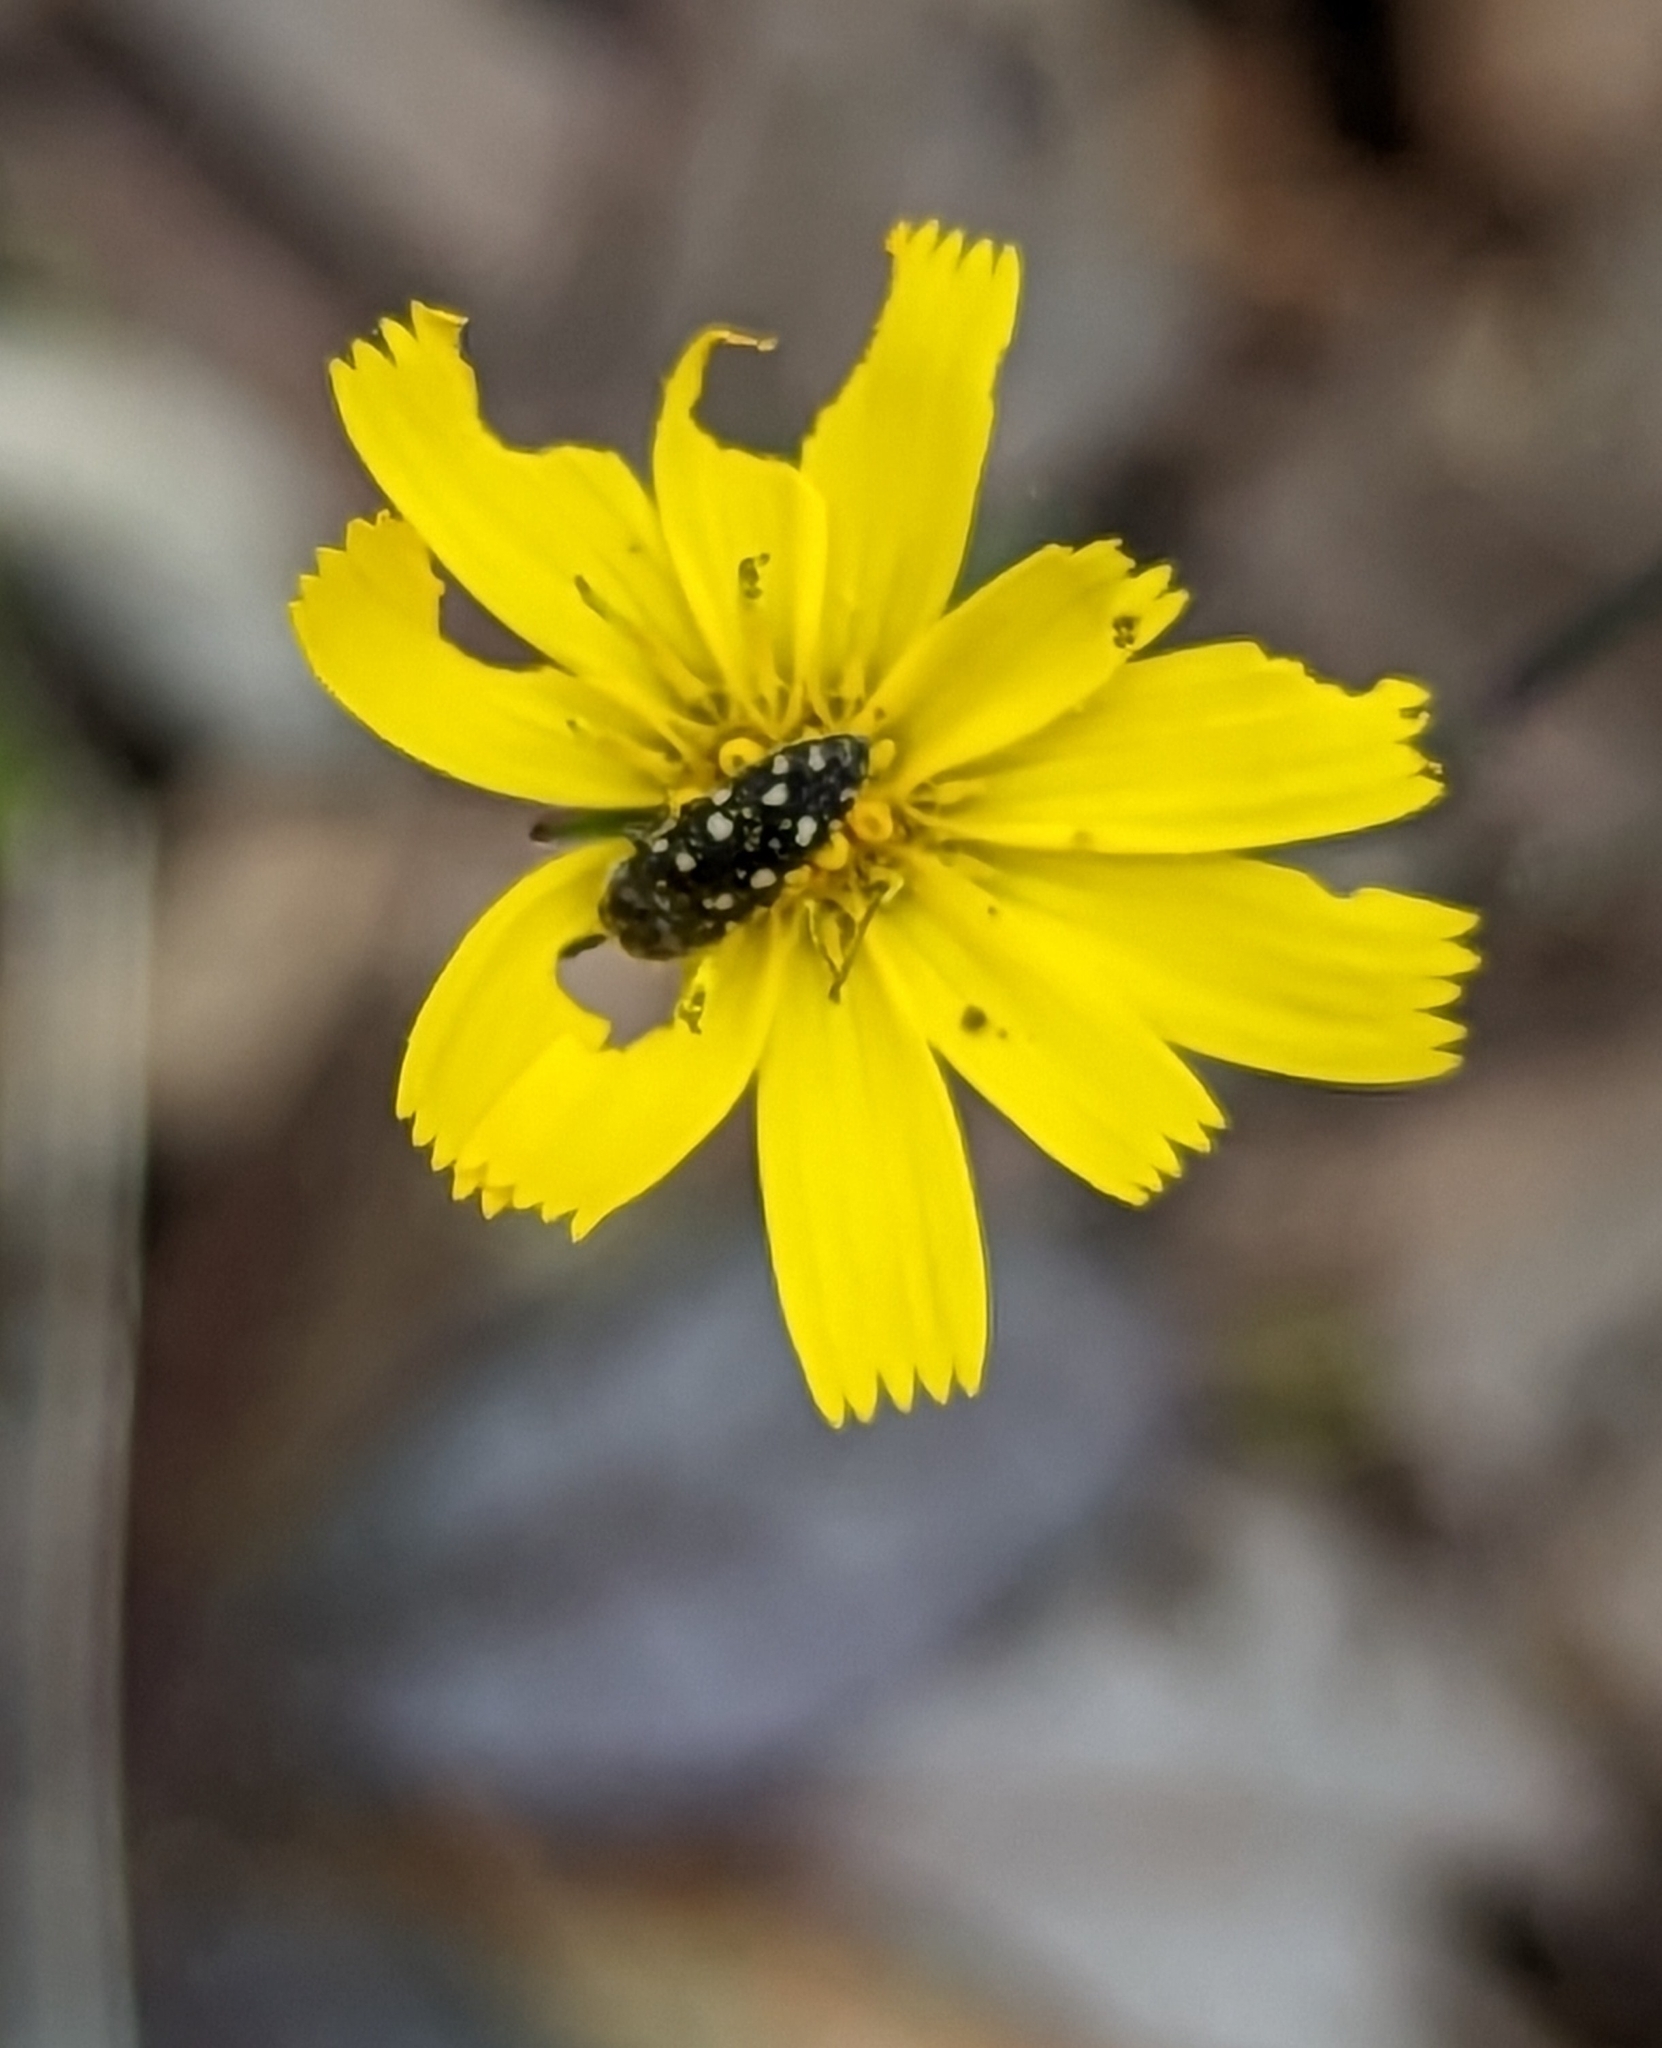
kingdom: Animalia
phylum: Arthropoda
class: Insecta
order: Coleoptera
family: Buprestidae
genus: Acmaeodera
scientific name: Acmaeodera tubulus
